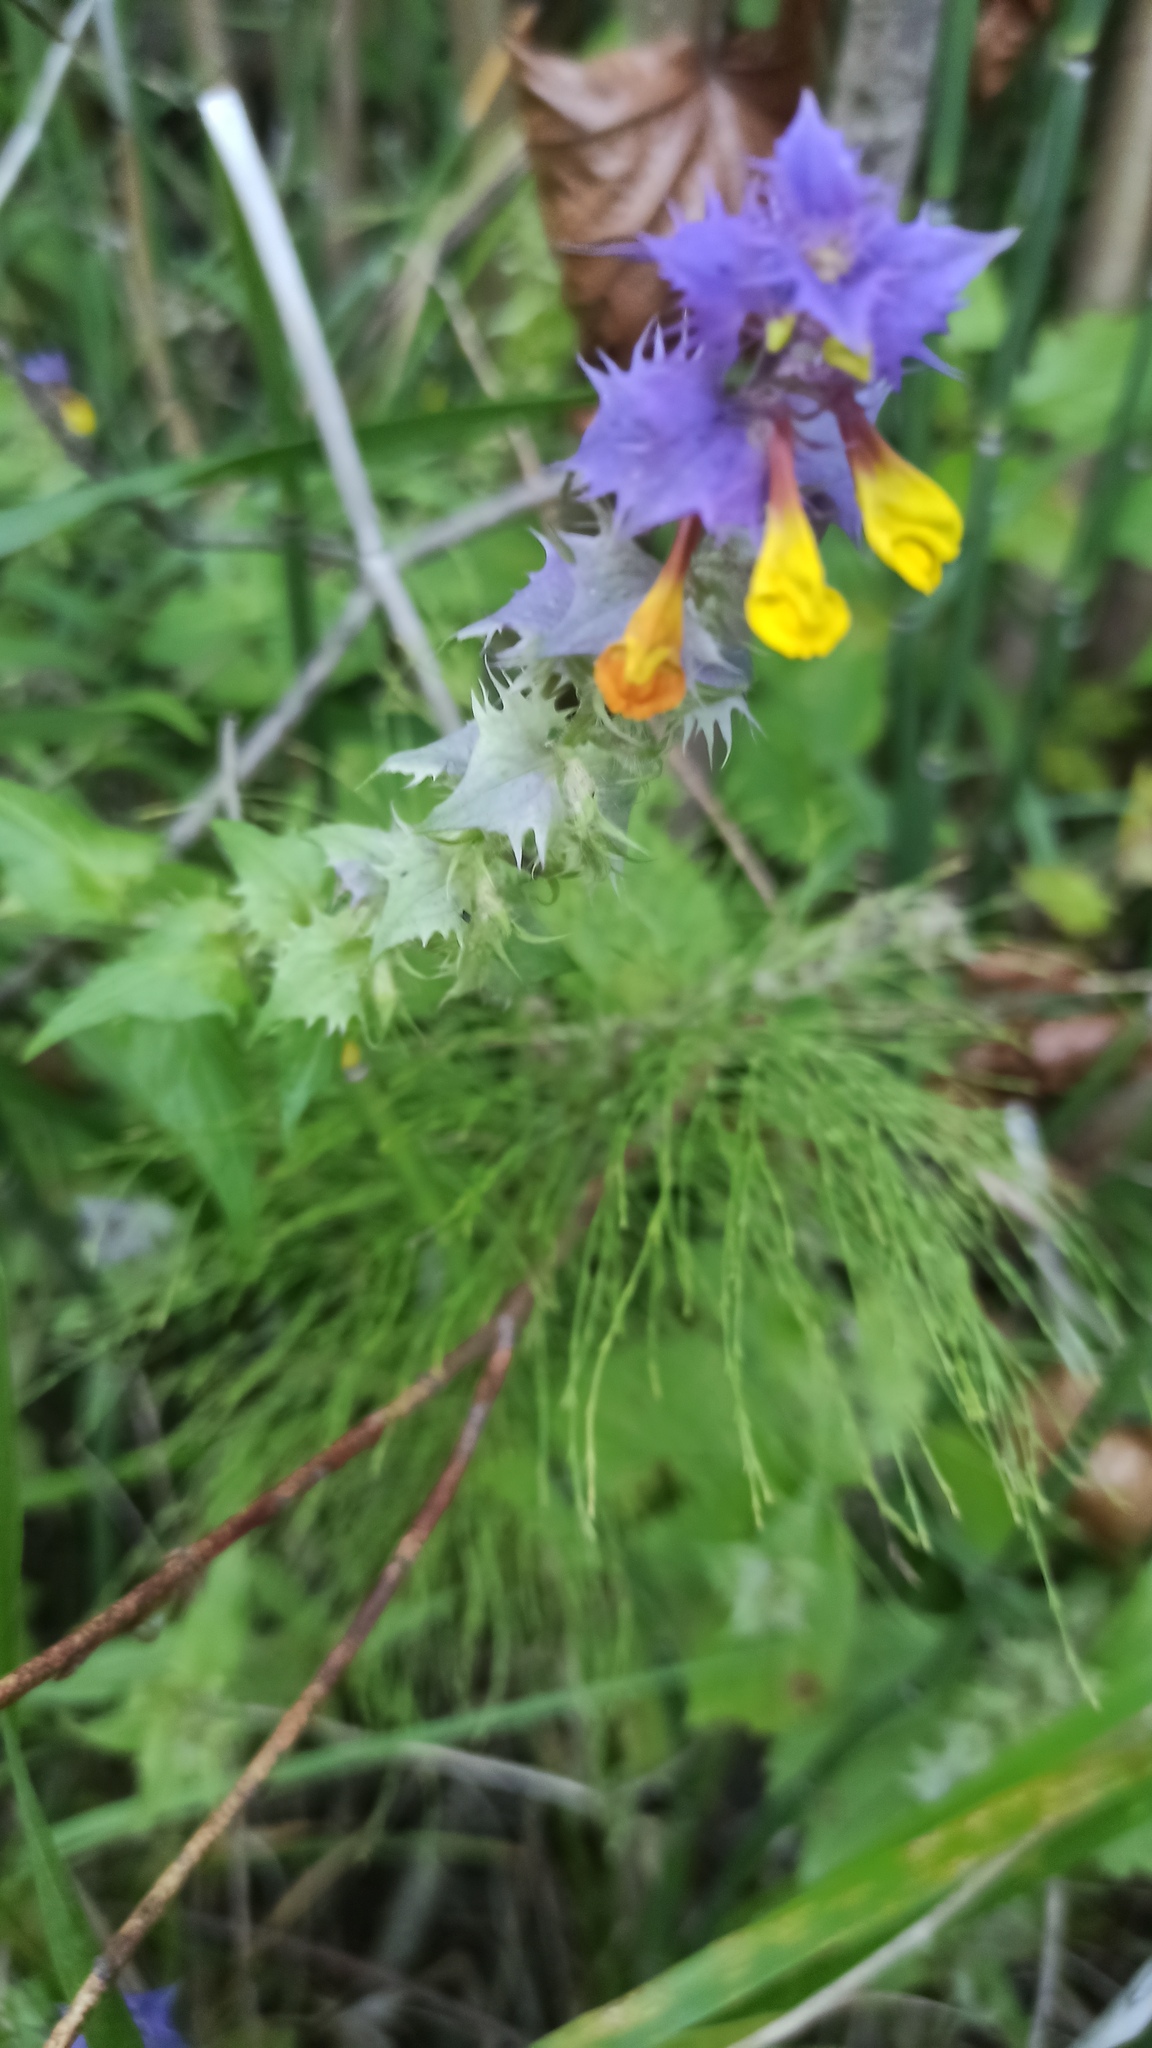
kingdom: Plantae
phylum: Tracheophyta
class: Magnoliopsida
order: Lamiales
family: Orobanchaceae
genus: Melampyrum
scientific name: Melampyrum nemorosum
